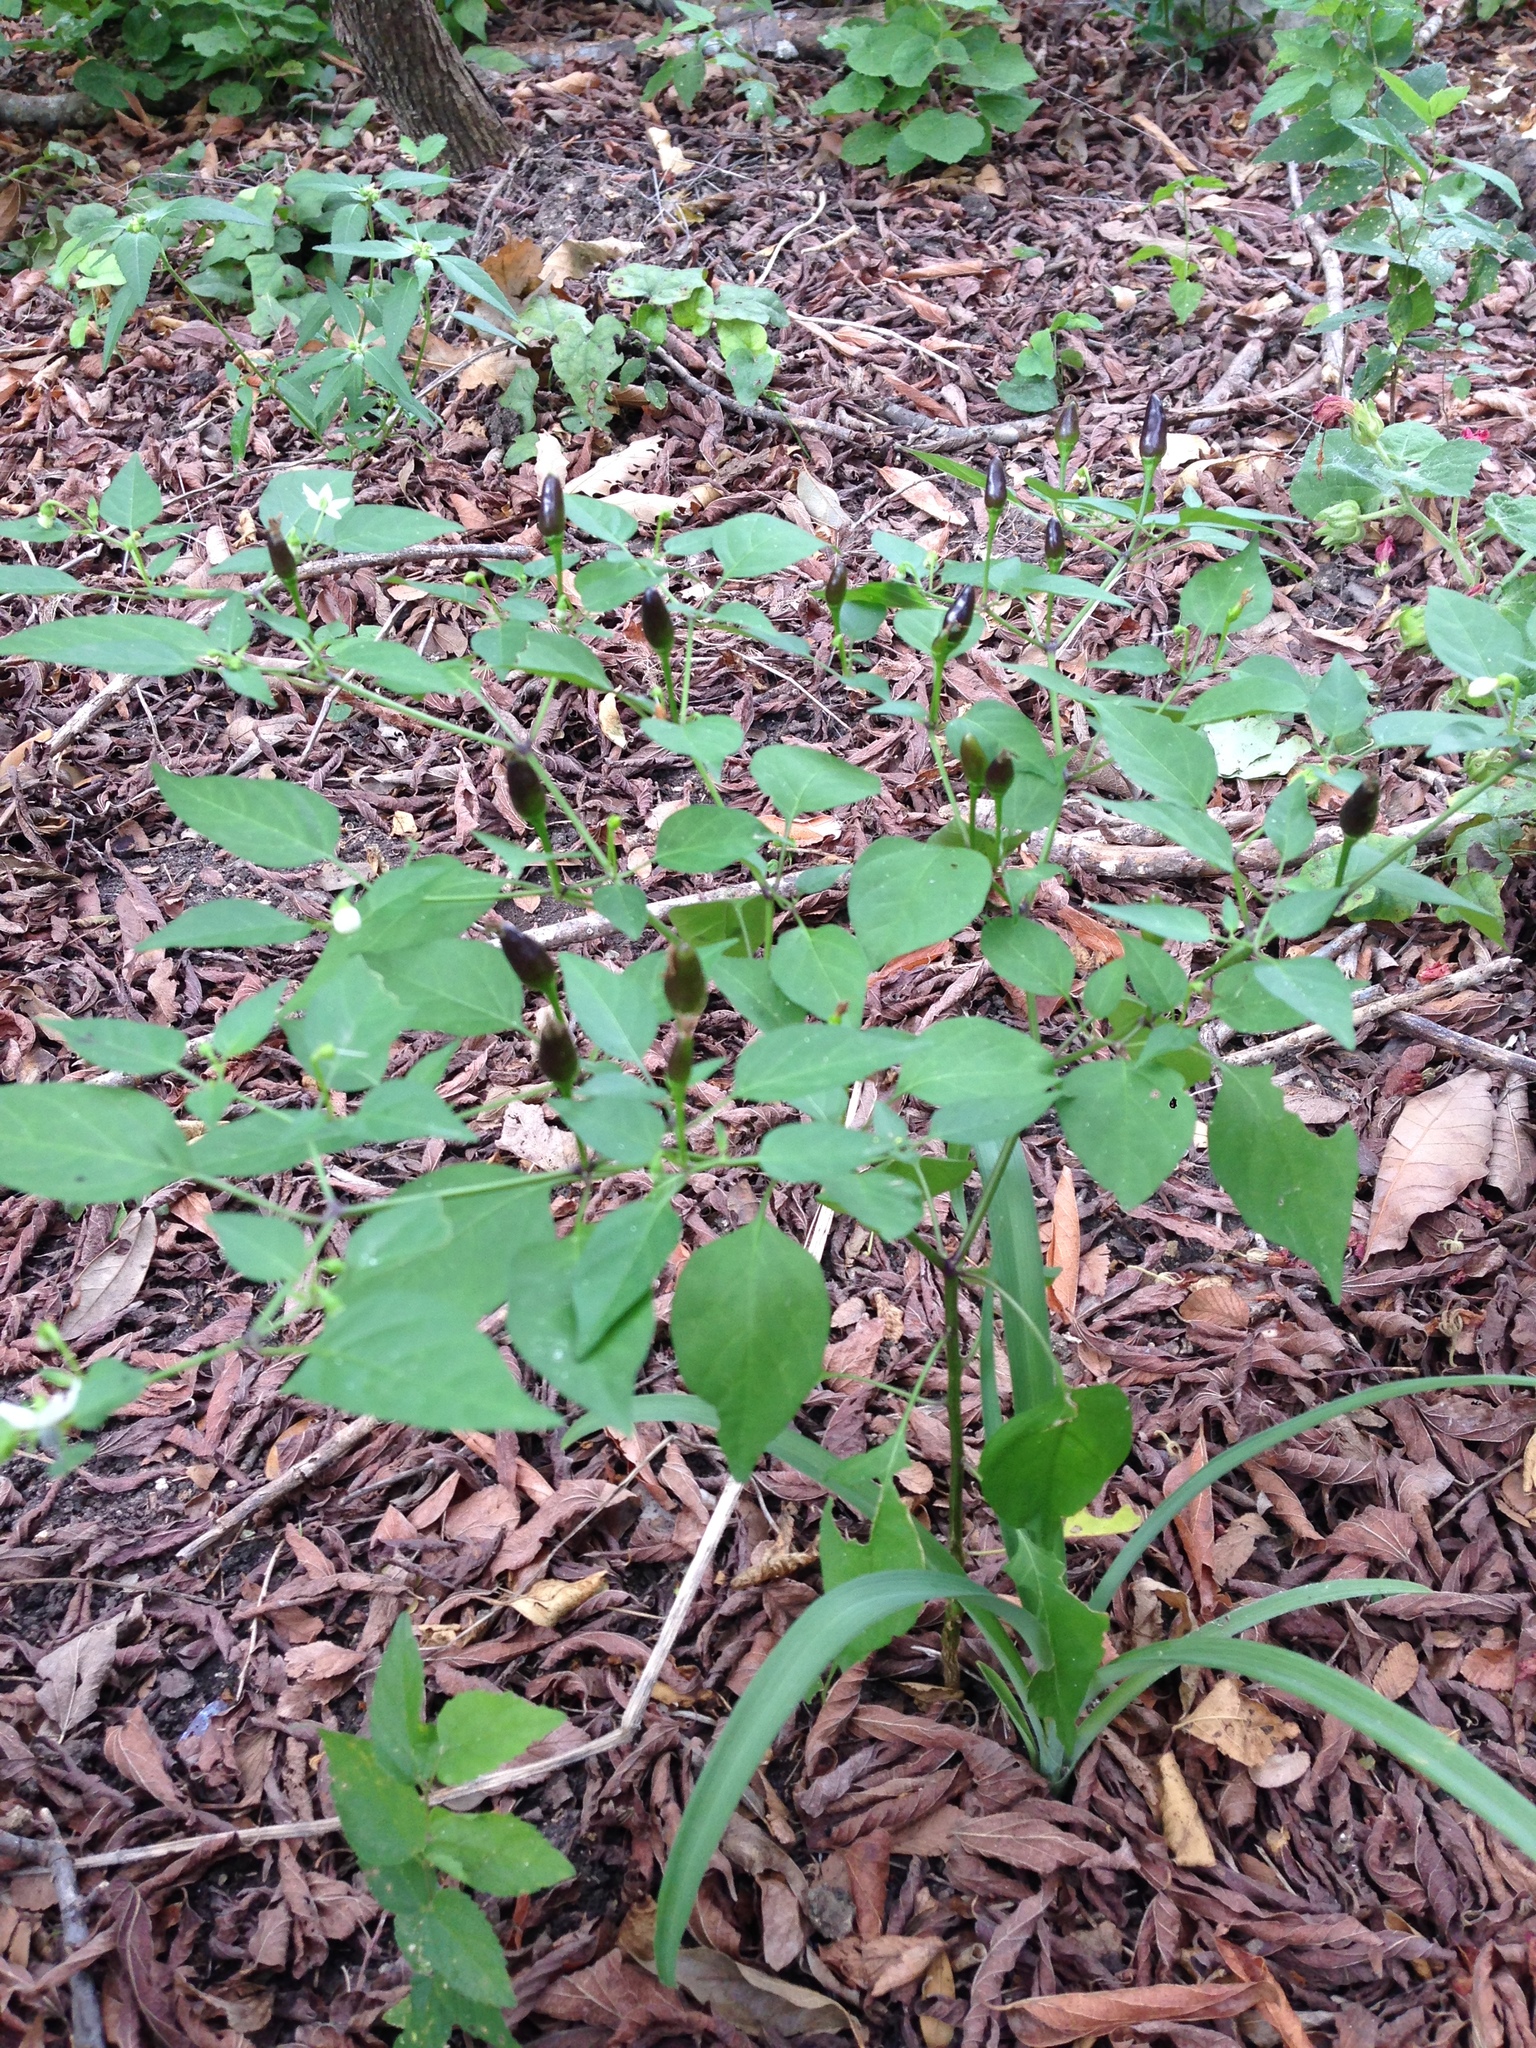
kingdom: Plantae
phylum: Tracheophyta
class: Magnoliopsida
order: Solanales
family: Solanaceae
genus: Capsicum
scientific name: Capsicum annuum
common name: Sweet pepper
